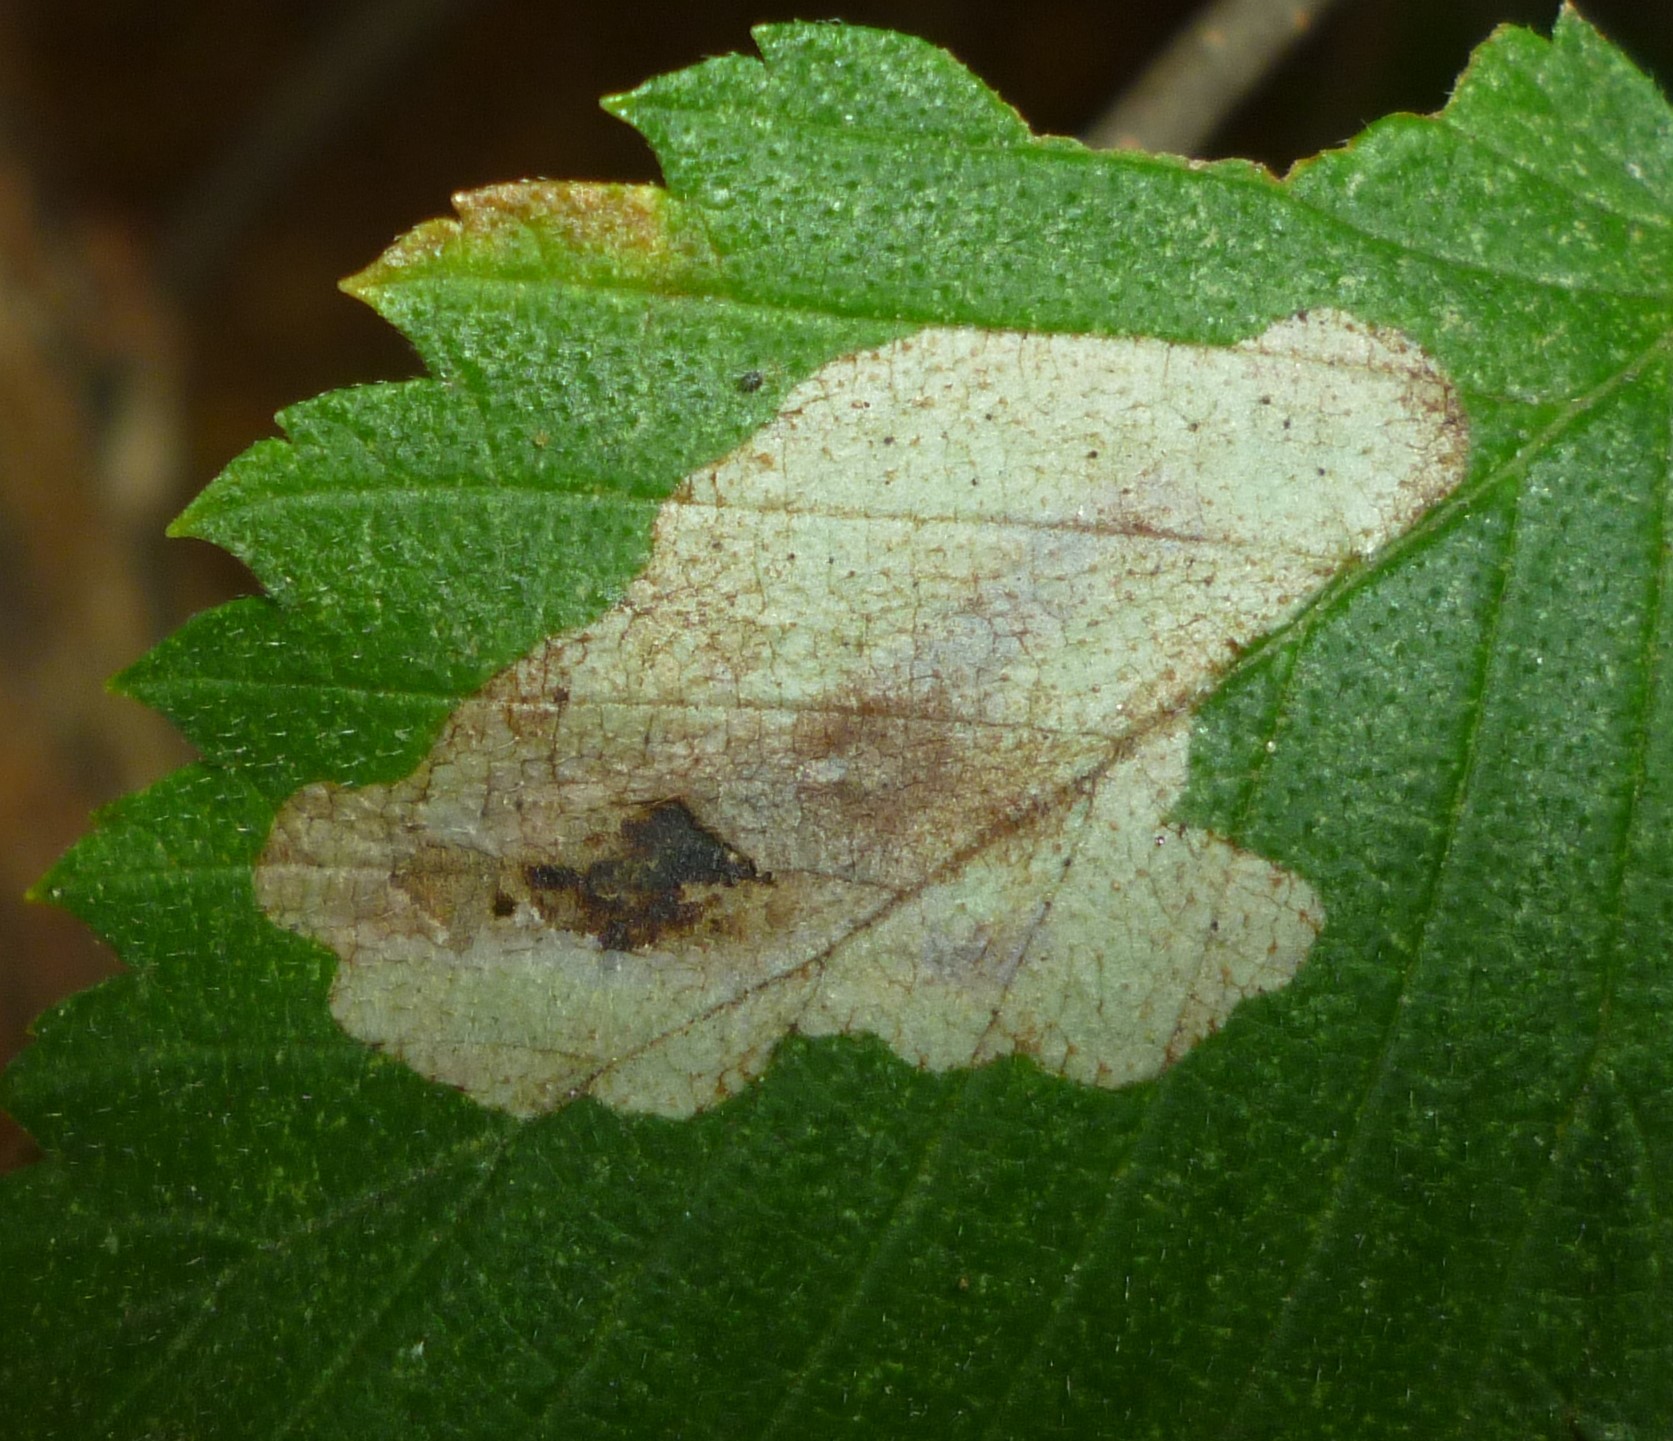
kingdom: Animalia
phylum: Arthropoda
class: Insecta
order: Lepidoptera
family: Gracillariidae
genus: Cameraria
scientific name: Cameraria ulmella
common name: Elm leafminer
